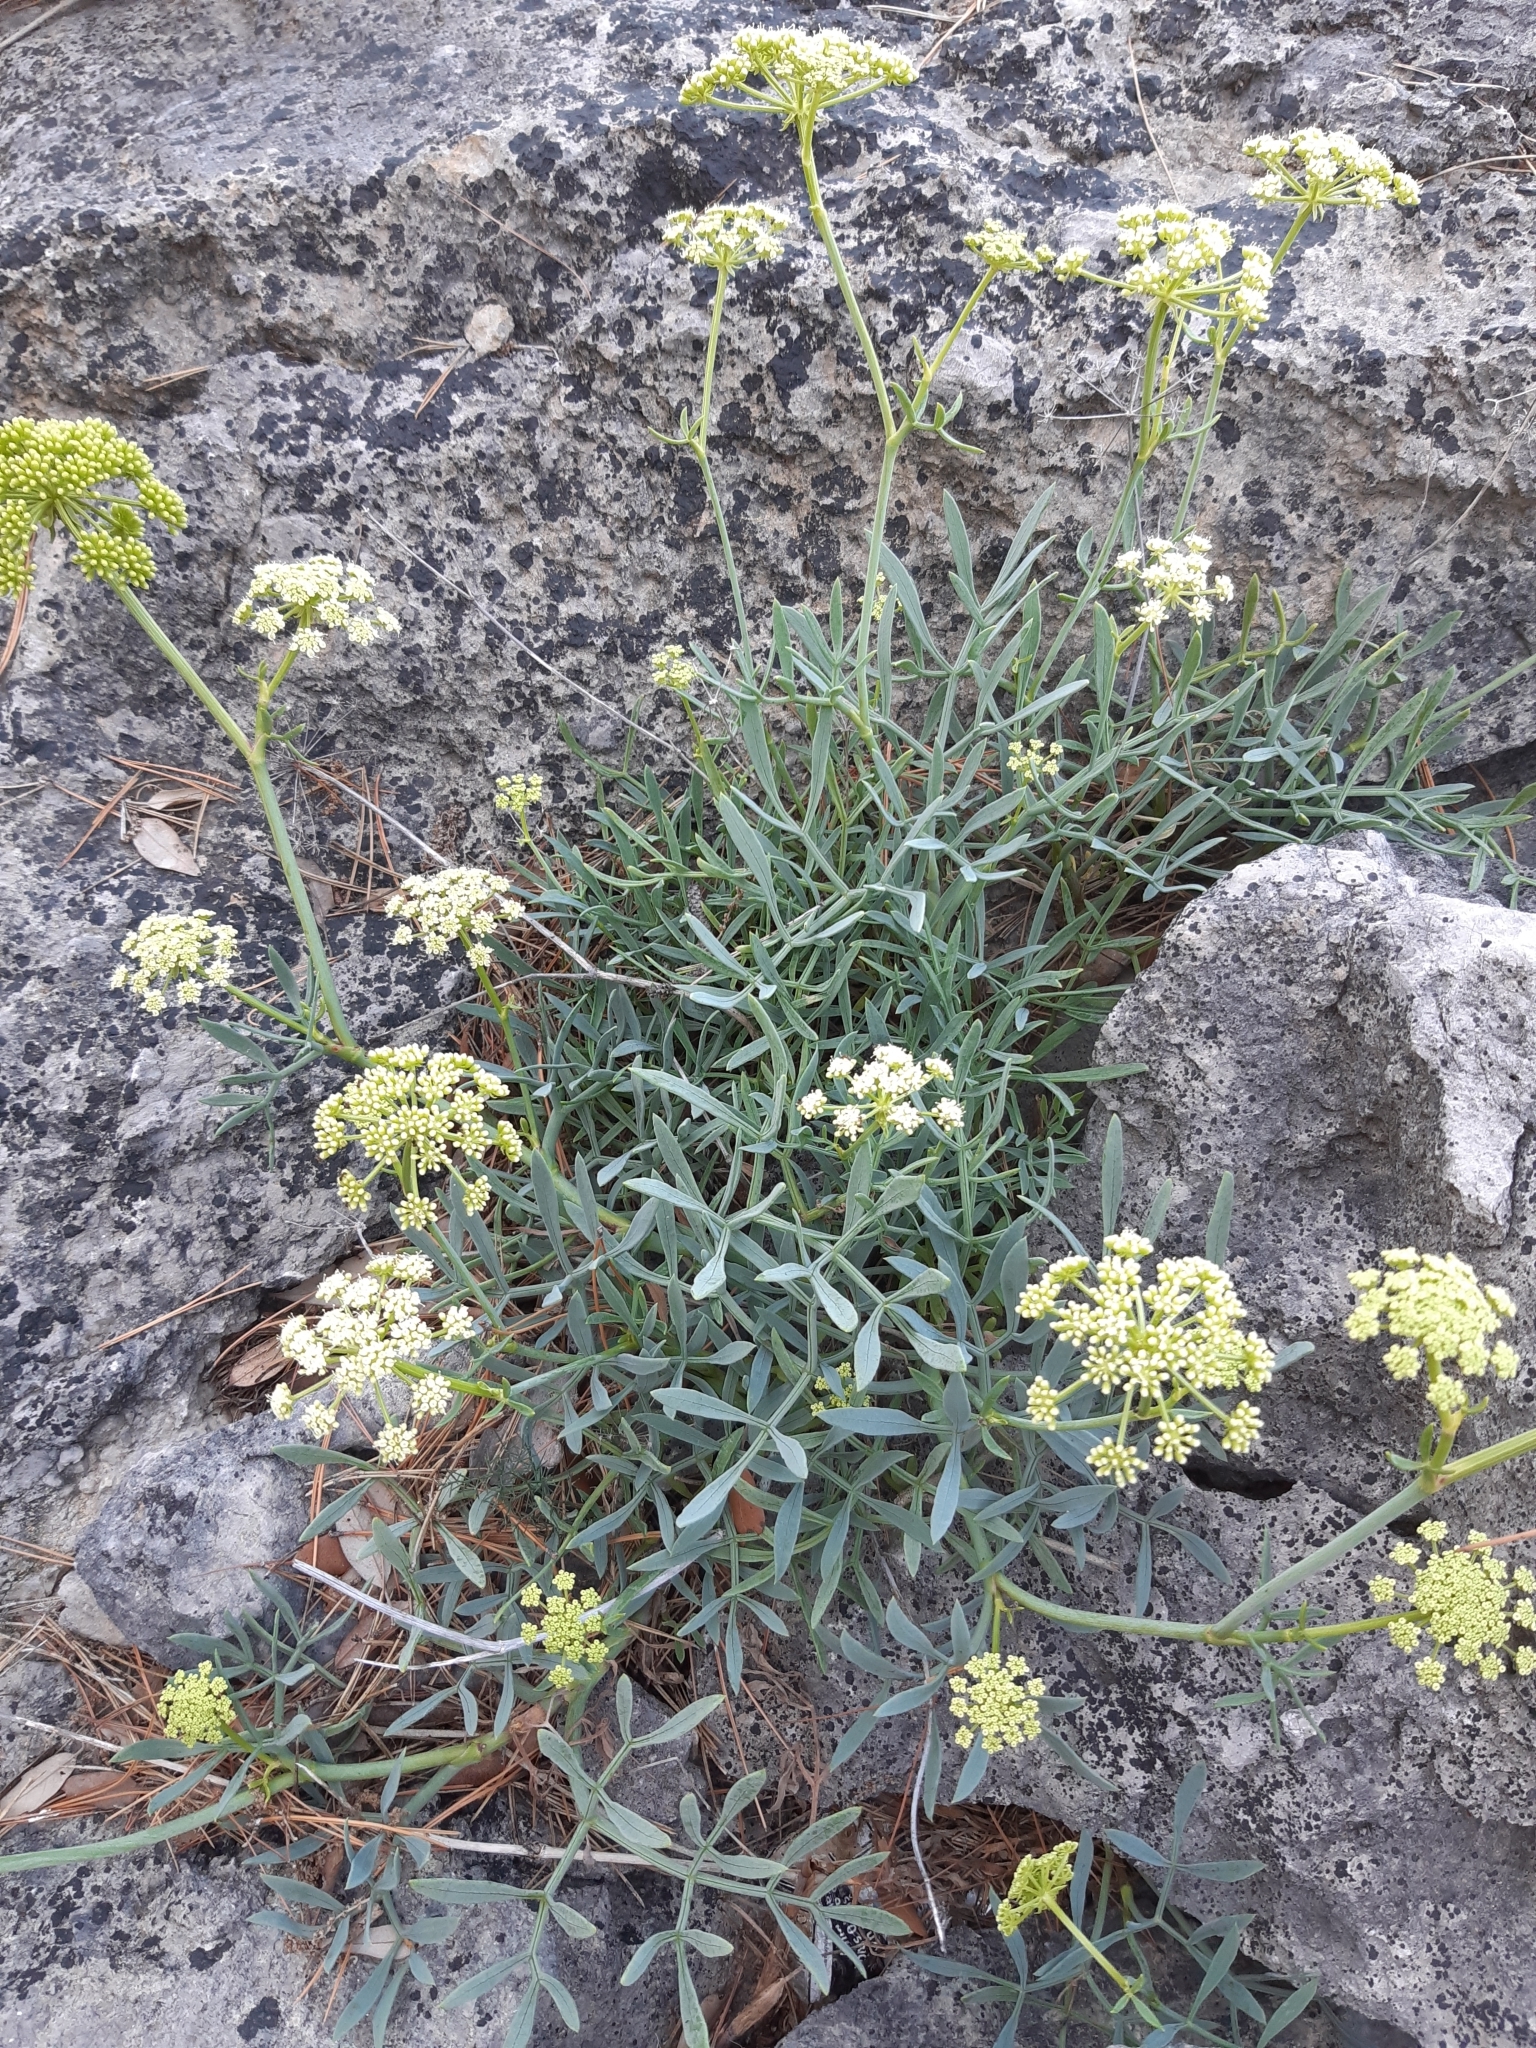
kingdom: Plantae
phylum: Tracheophyta
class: Magnoliopsida
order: Apiales
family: Apiaceae
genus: Crithmum
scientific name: Crithmum maritimum
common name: Rock samphire
